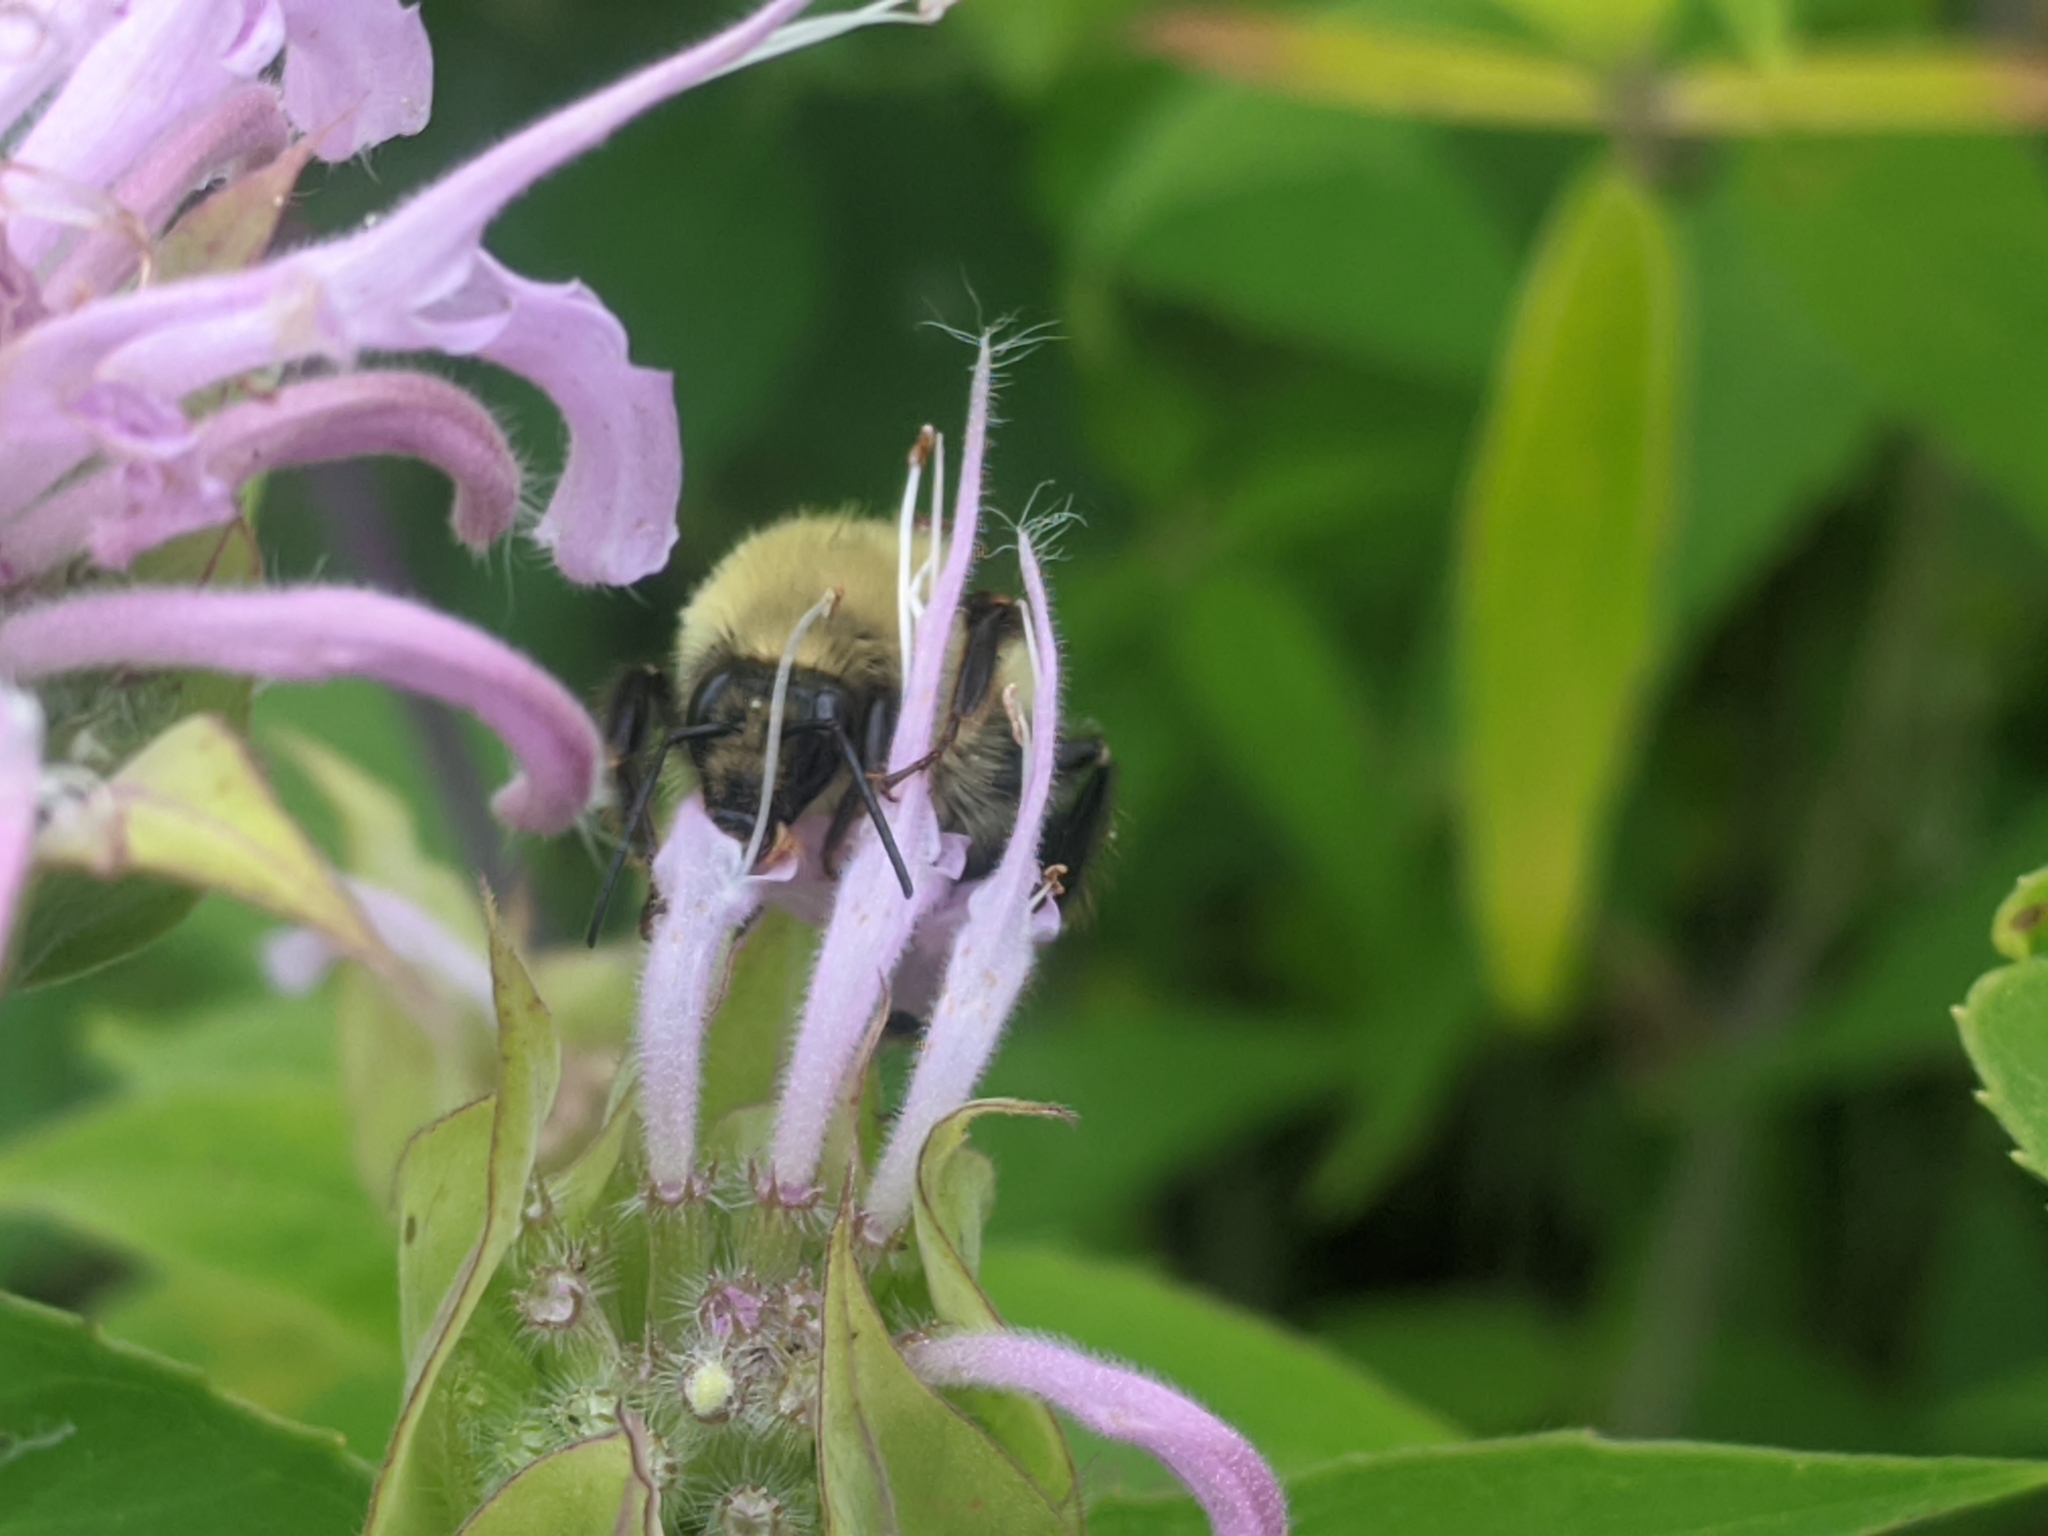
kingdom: Animalia
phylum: Arthropoda
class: Insecta
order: Hymenoptera
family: Apidae
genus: Bombus
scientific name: Bombus bimaculatus
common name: Two-spotted bumble bee
